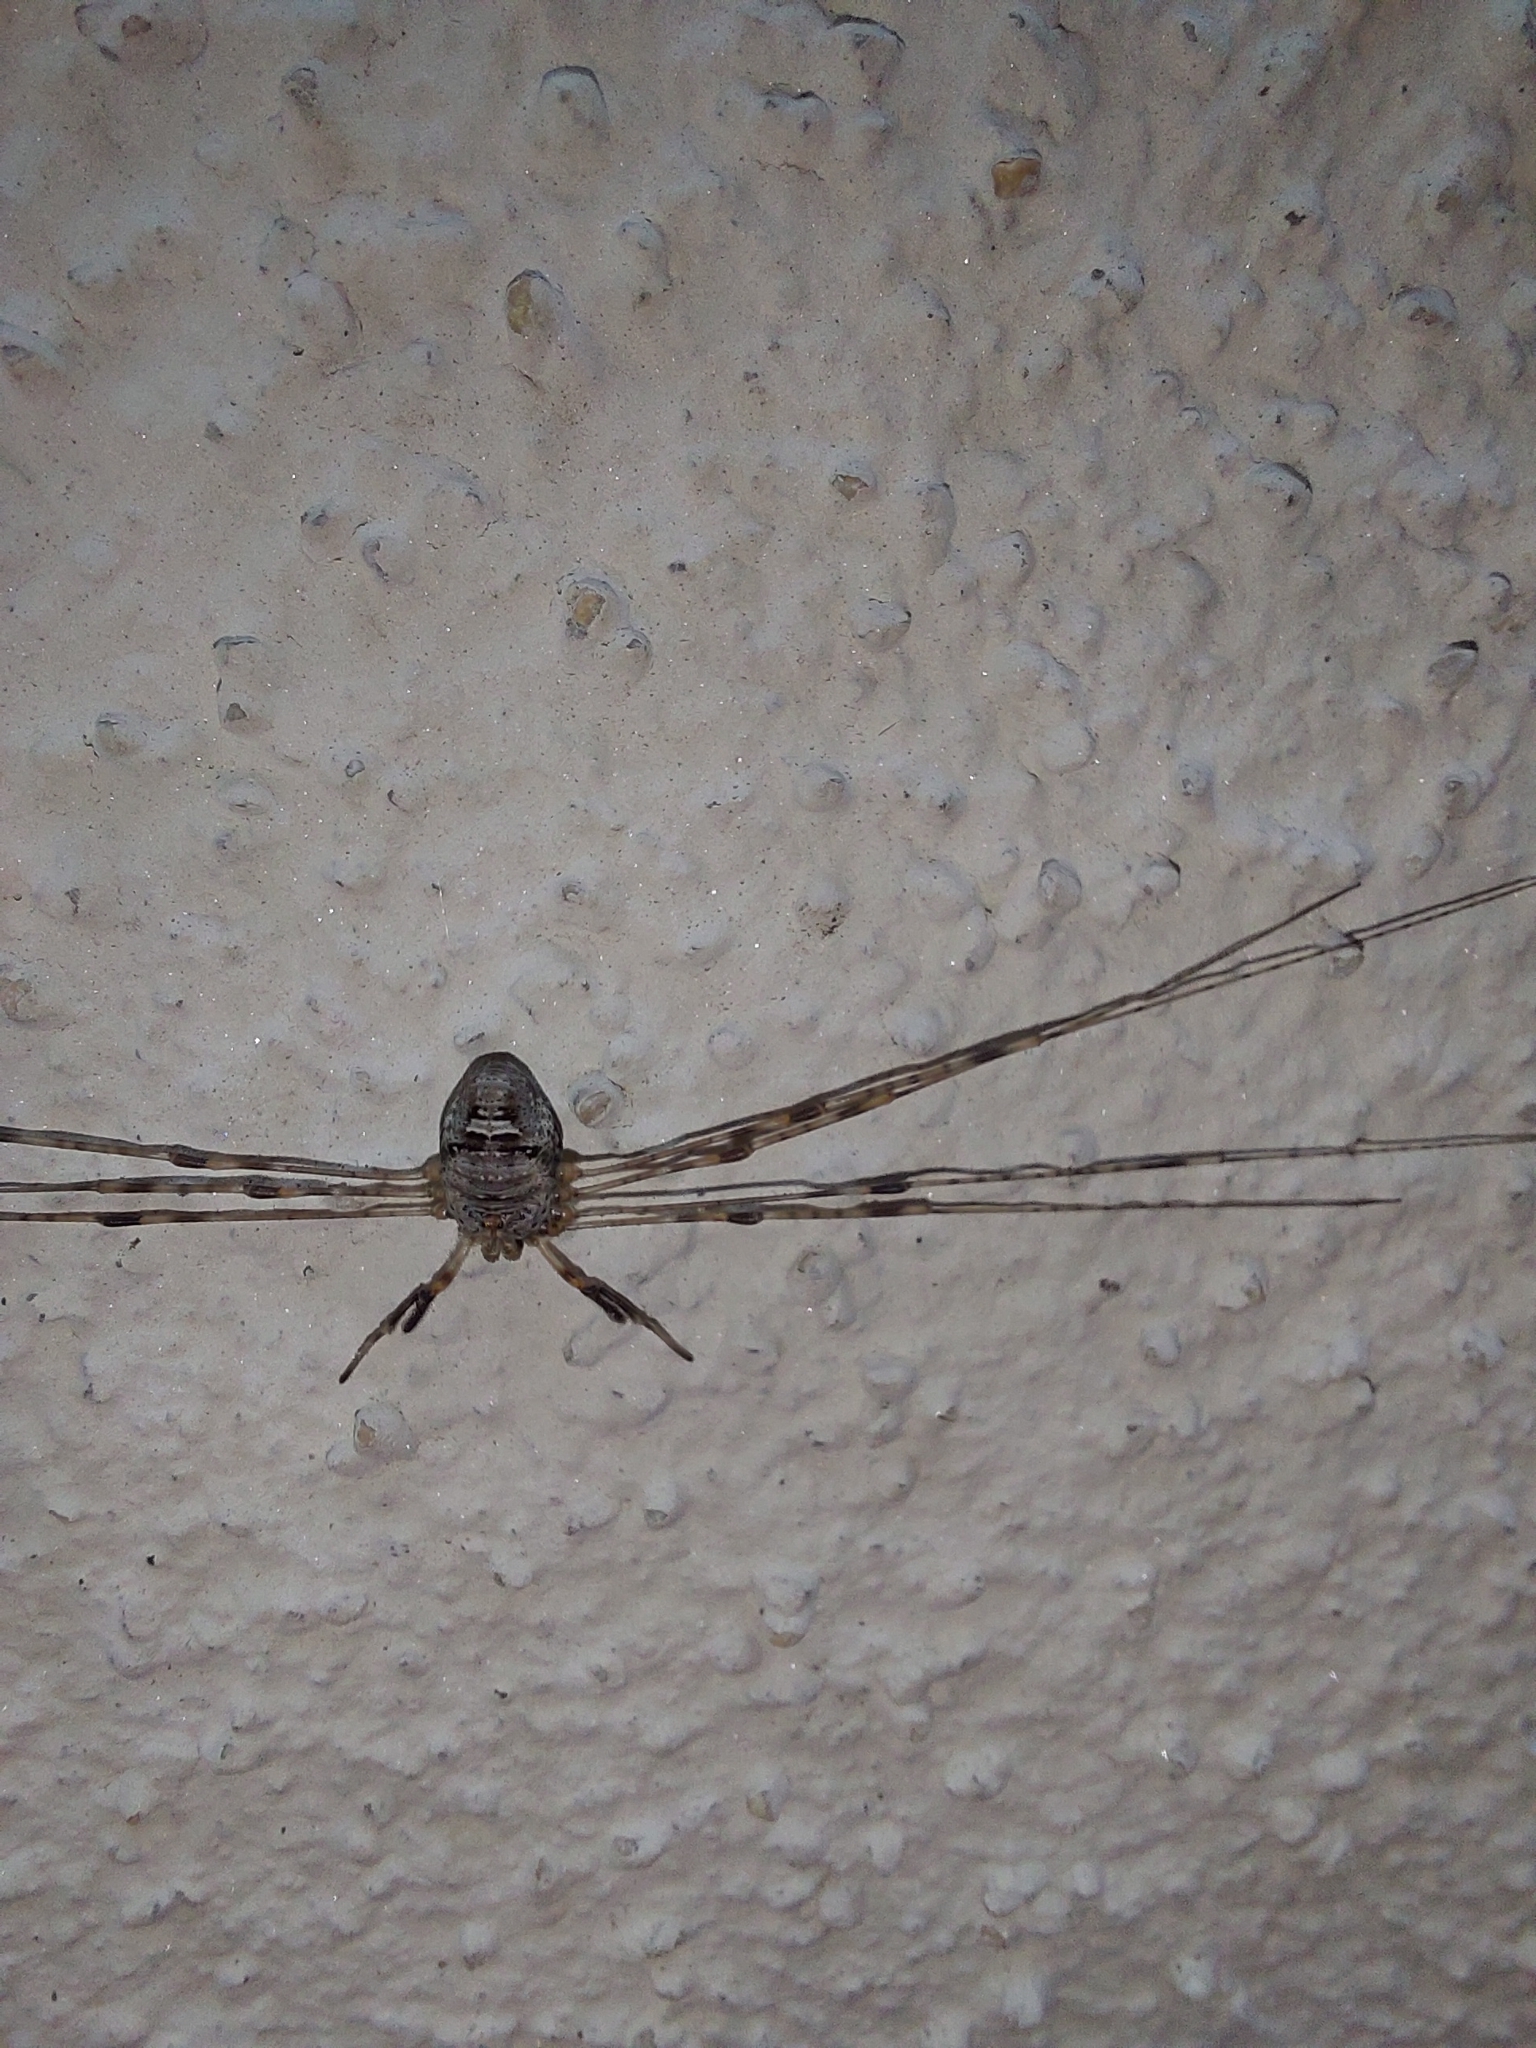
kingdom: Animalia
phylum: Arthropoda
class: Arachnida
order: Opiliones
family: Phalangiidae
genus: Dicranopalpus
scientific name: Dicranopalpus ramosus
